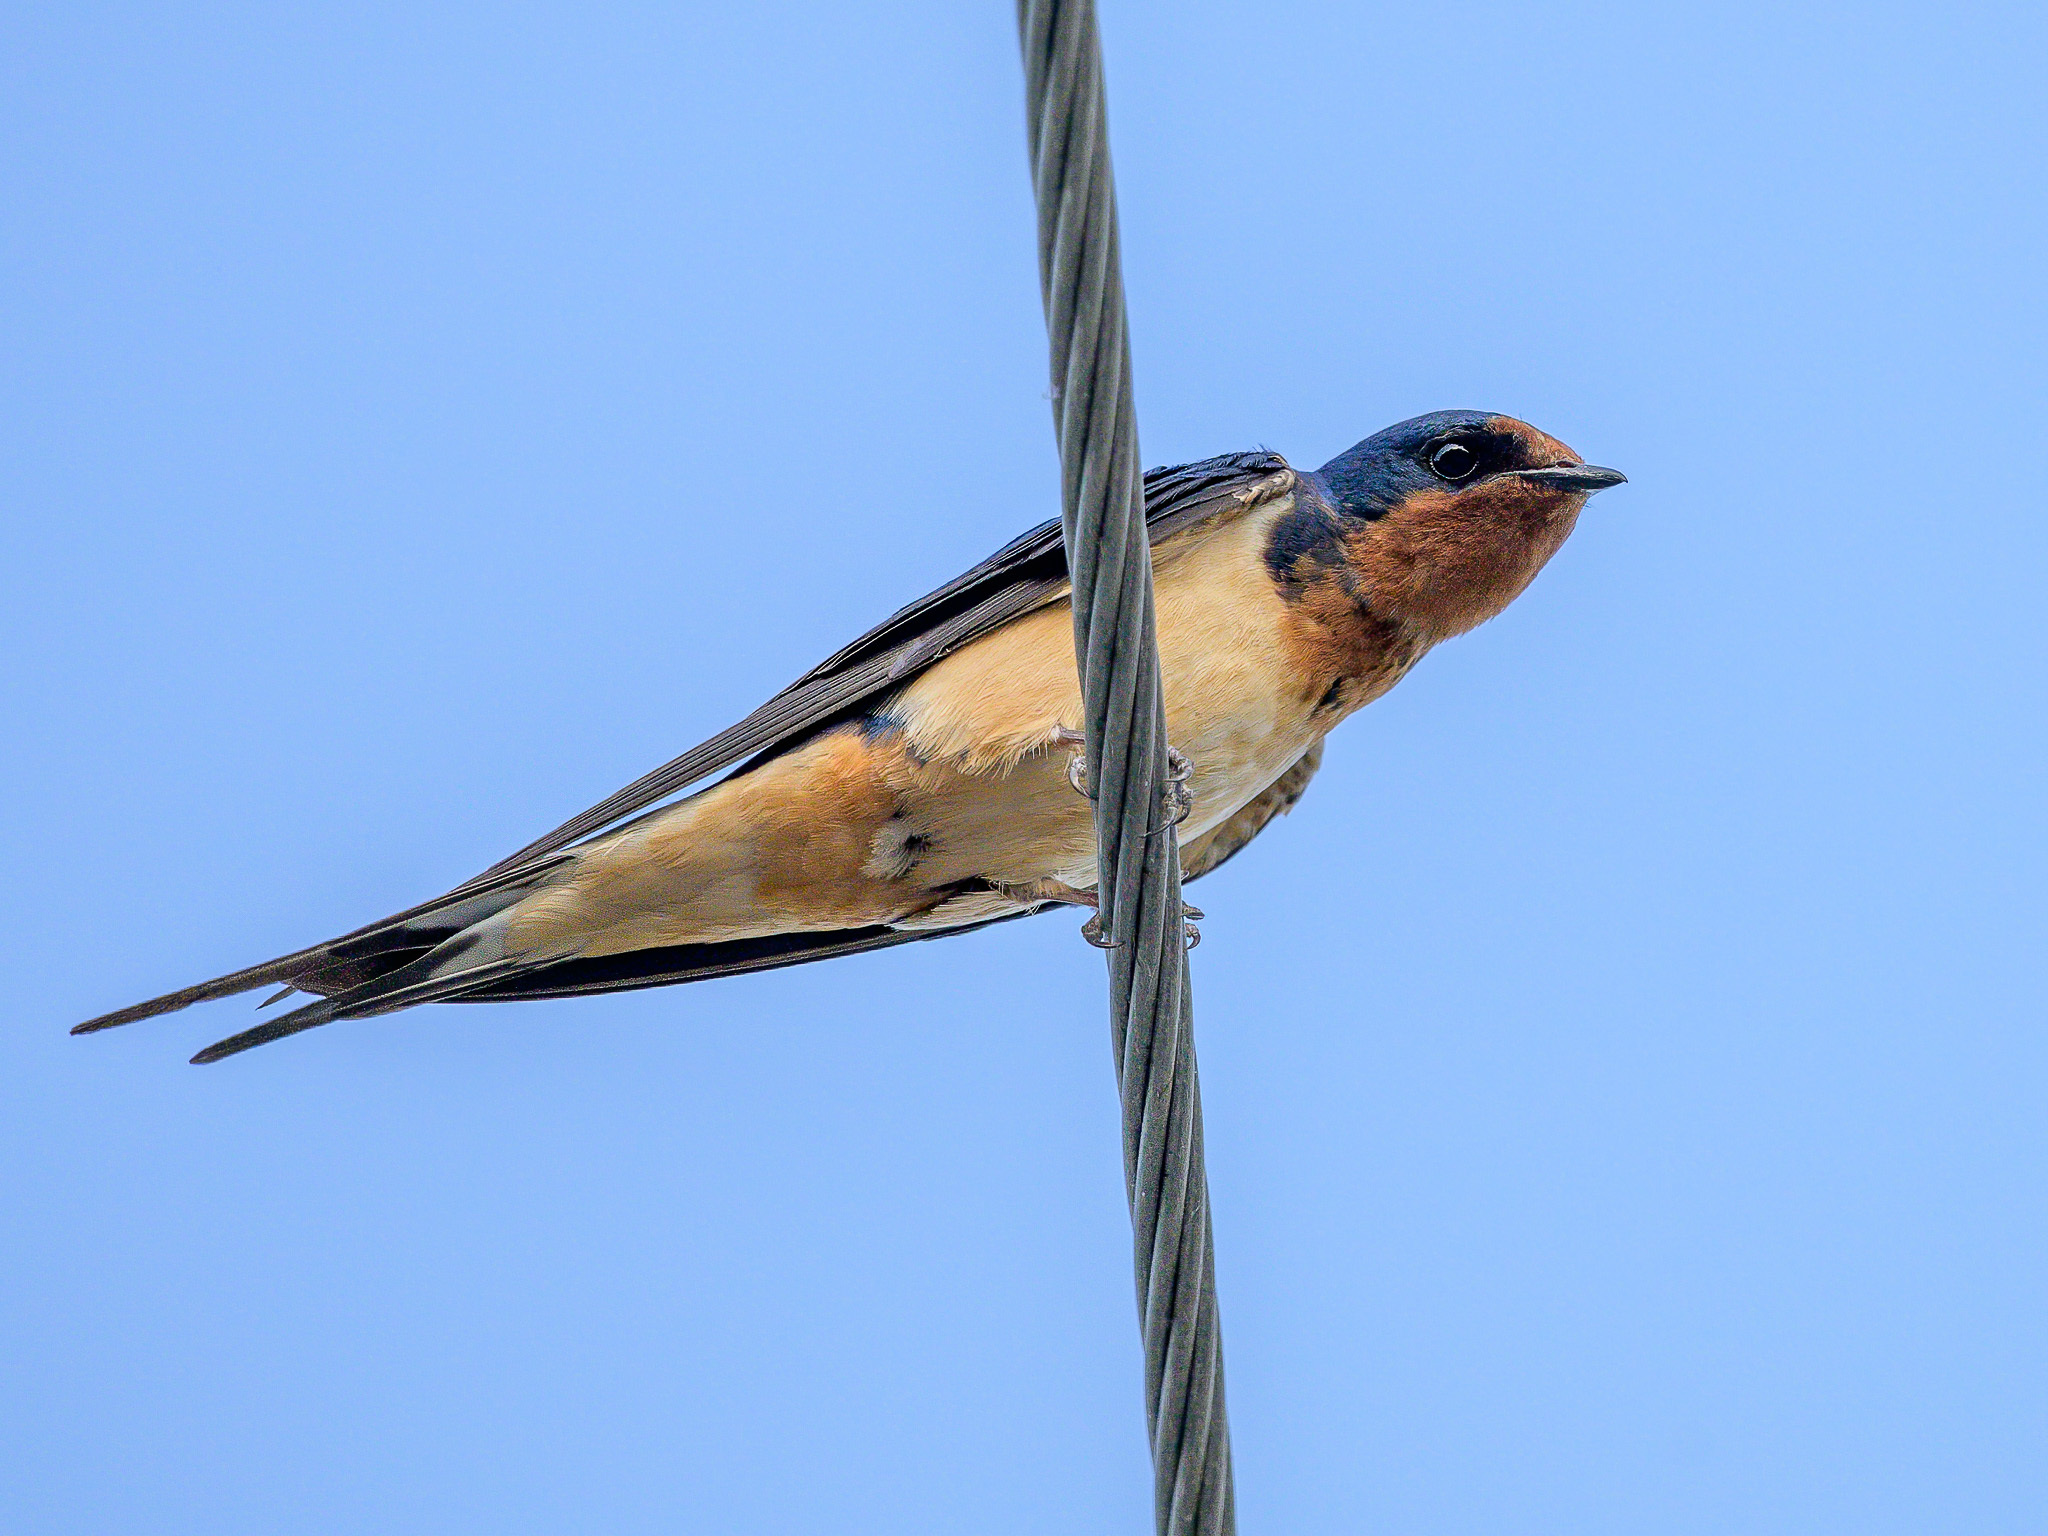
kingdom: Animalia
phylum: Chordata
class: Aves
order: Passeriformes
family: Hirundinidae
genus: Hirundo
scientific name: Hirundo rustica
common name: Barn swallow
